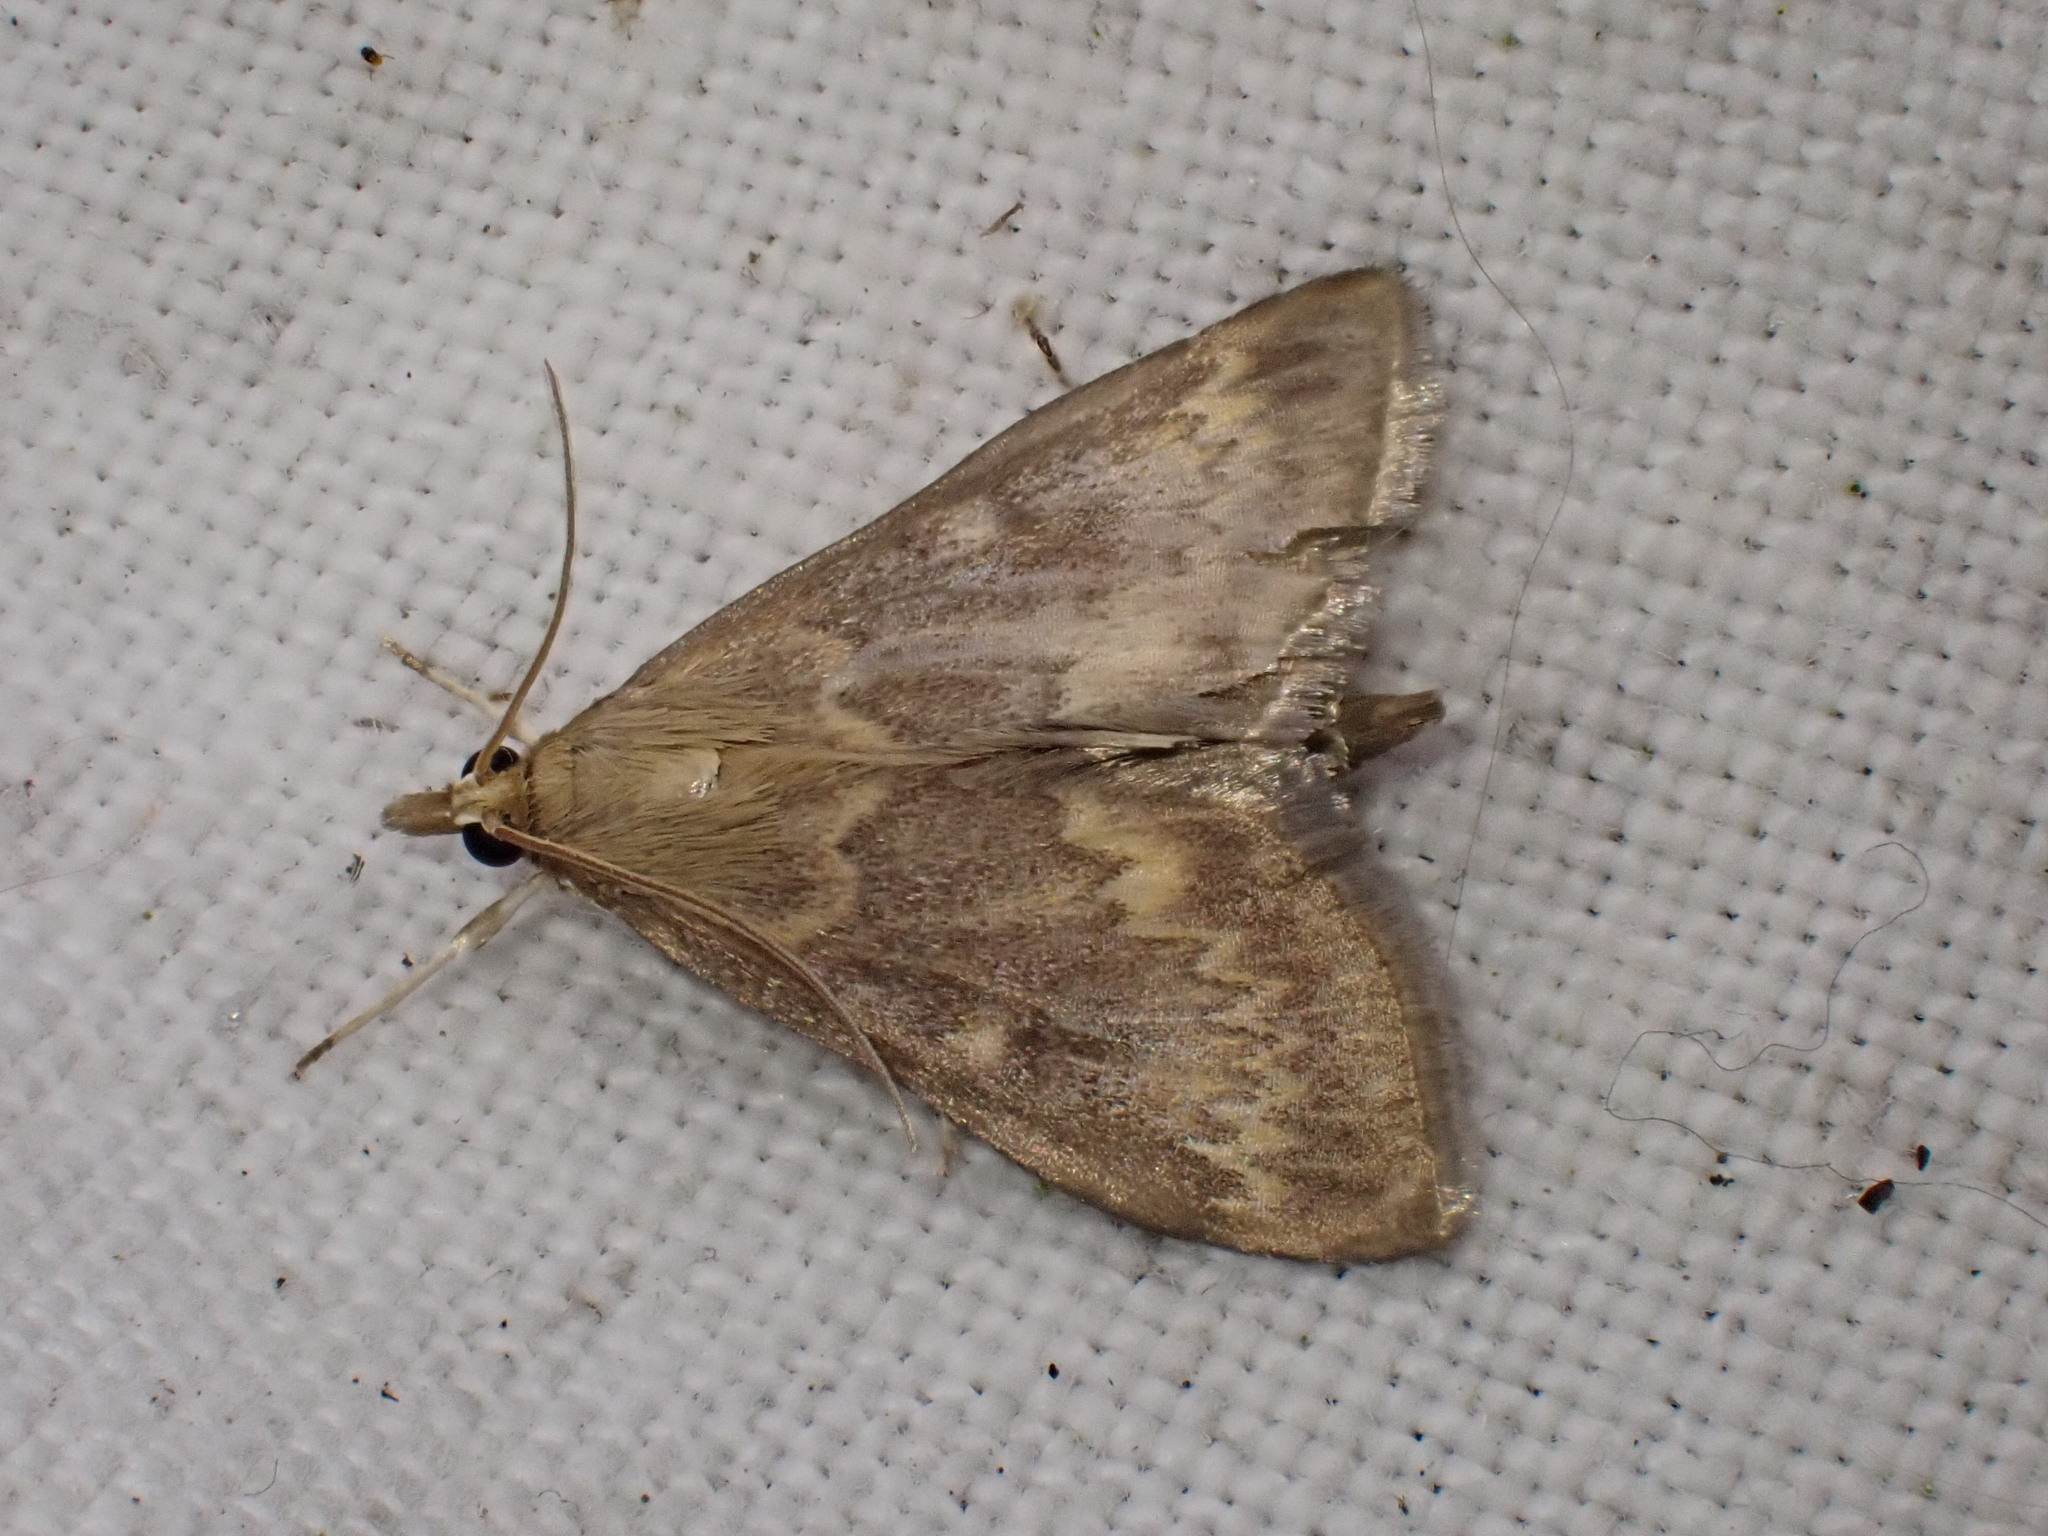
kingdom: Animalia
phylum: Arthropoda
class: Insecta
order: Lepidoptera
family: Crambidae
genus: Ostrinia
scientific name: Ostrinia nubilalis
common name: European corn borer
